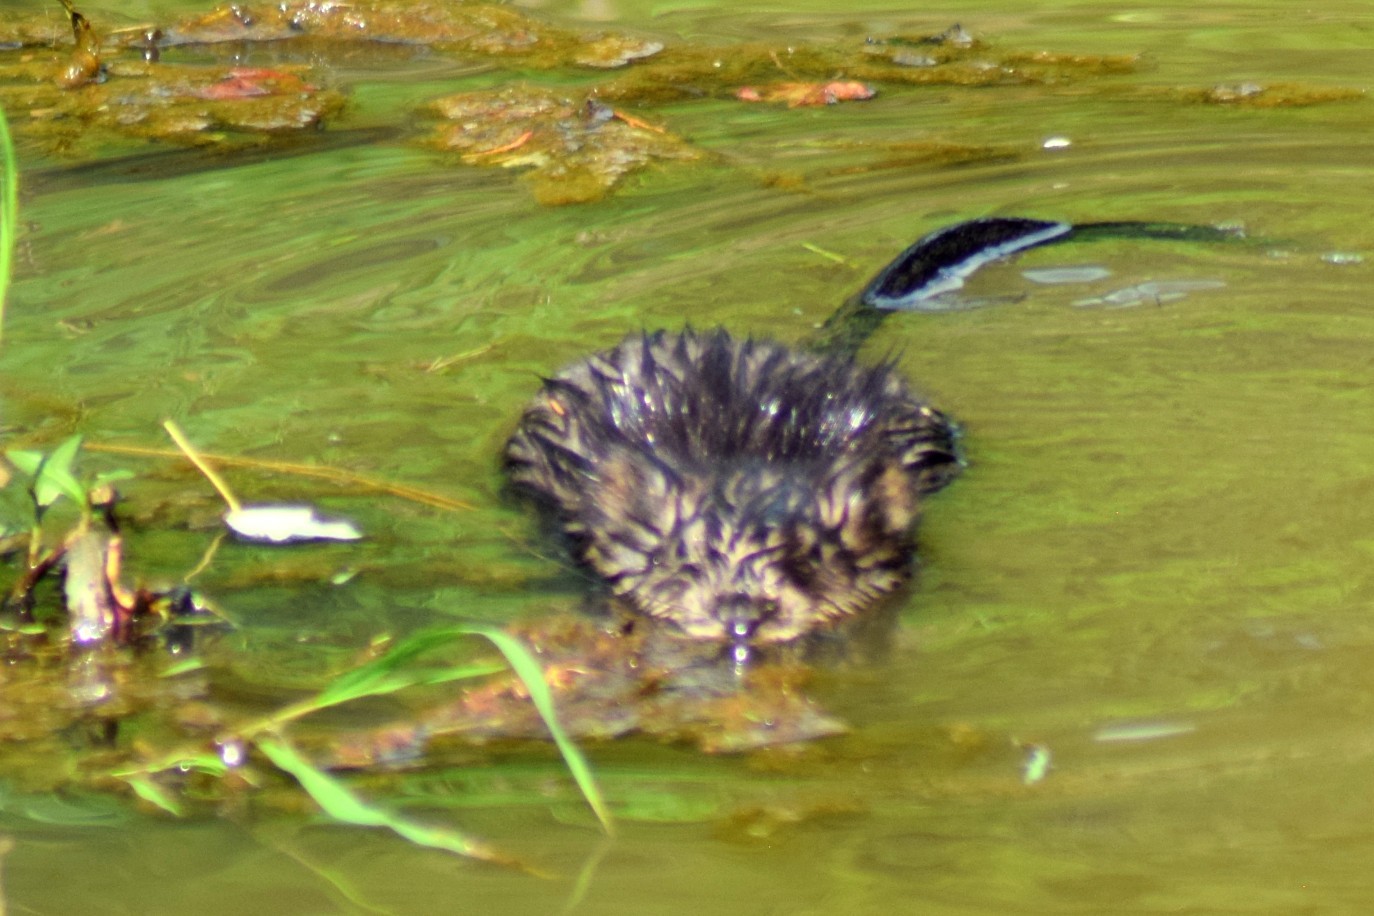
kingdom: Animalia
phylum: Chordata
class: Mammalia
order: Rodentia
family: Cricetidae
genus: Ondatra
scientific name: Ondatra zibethicus
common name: Muskrat
